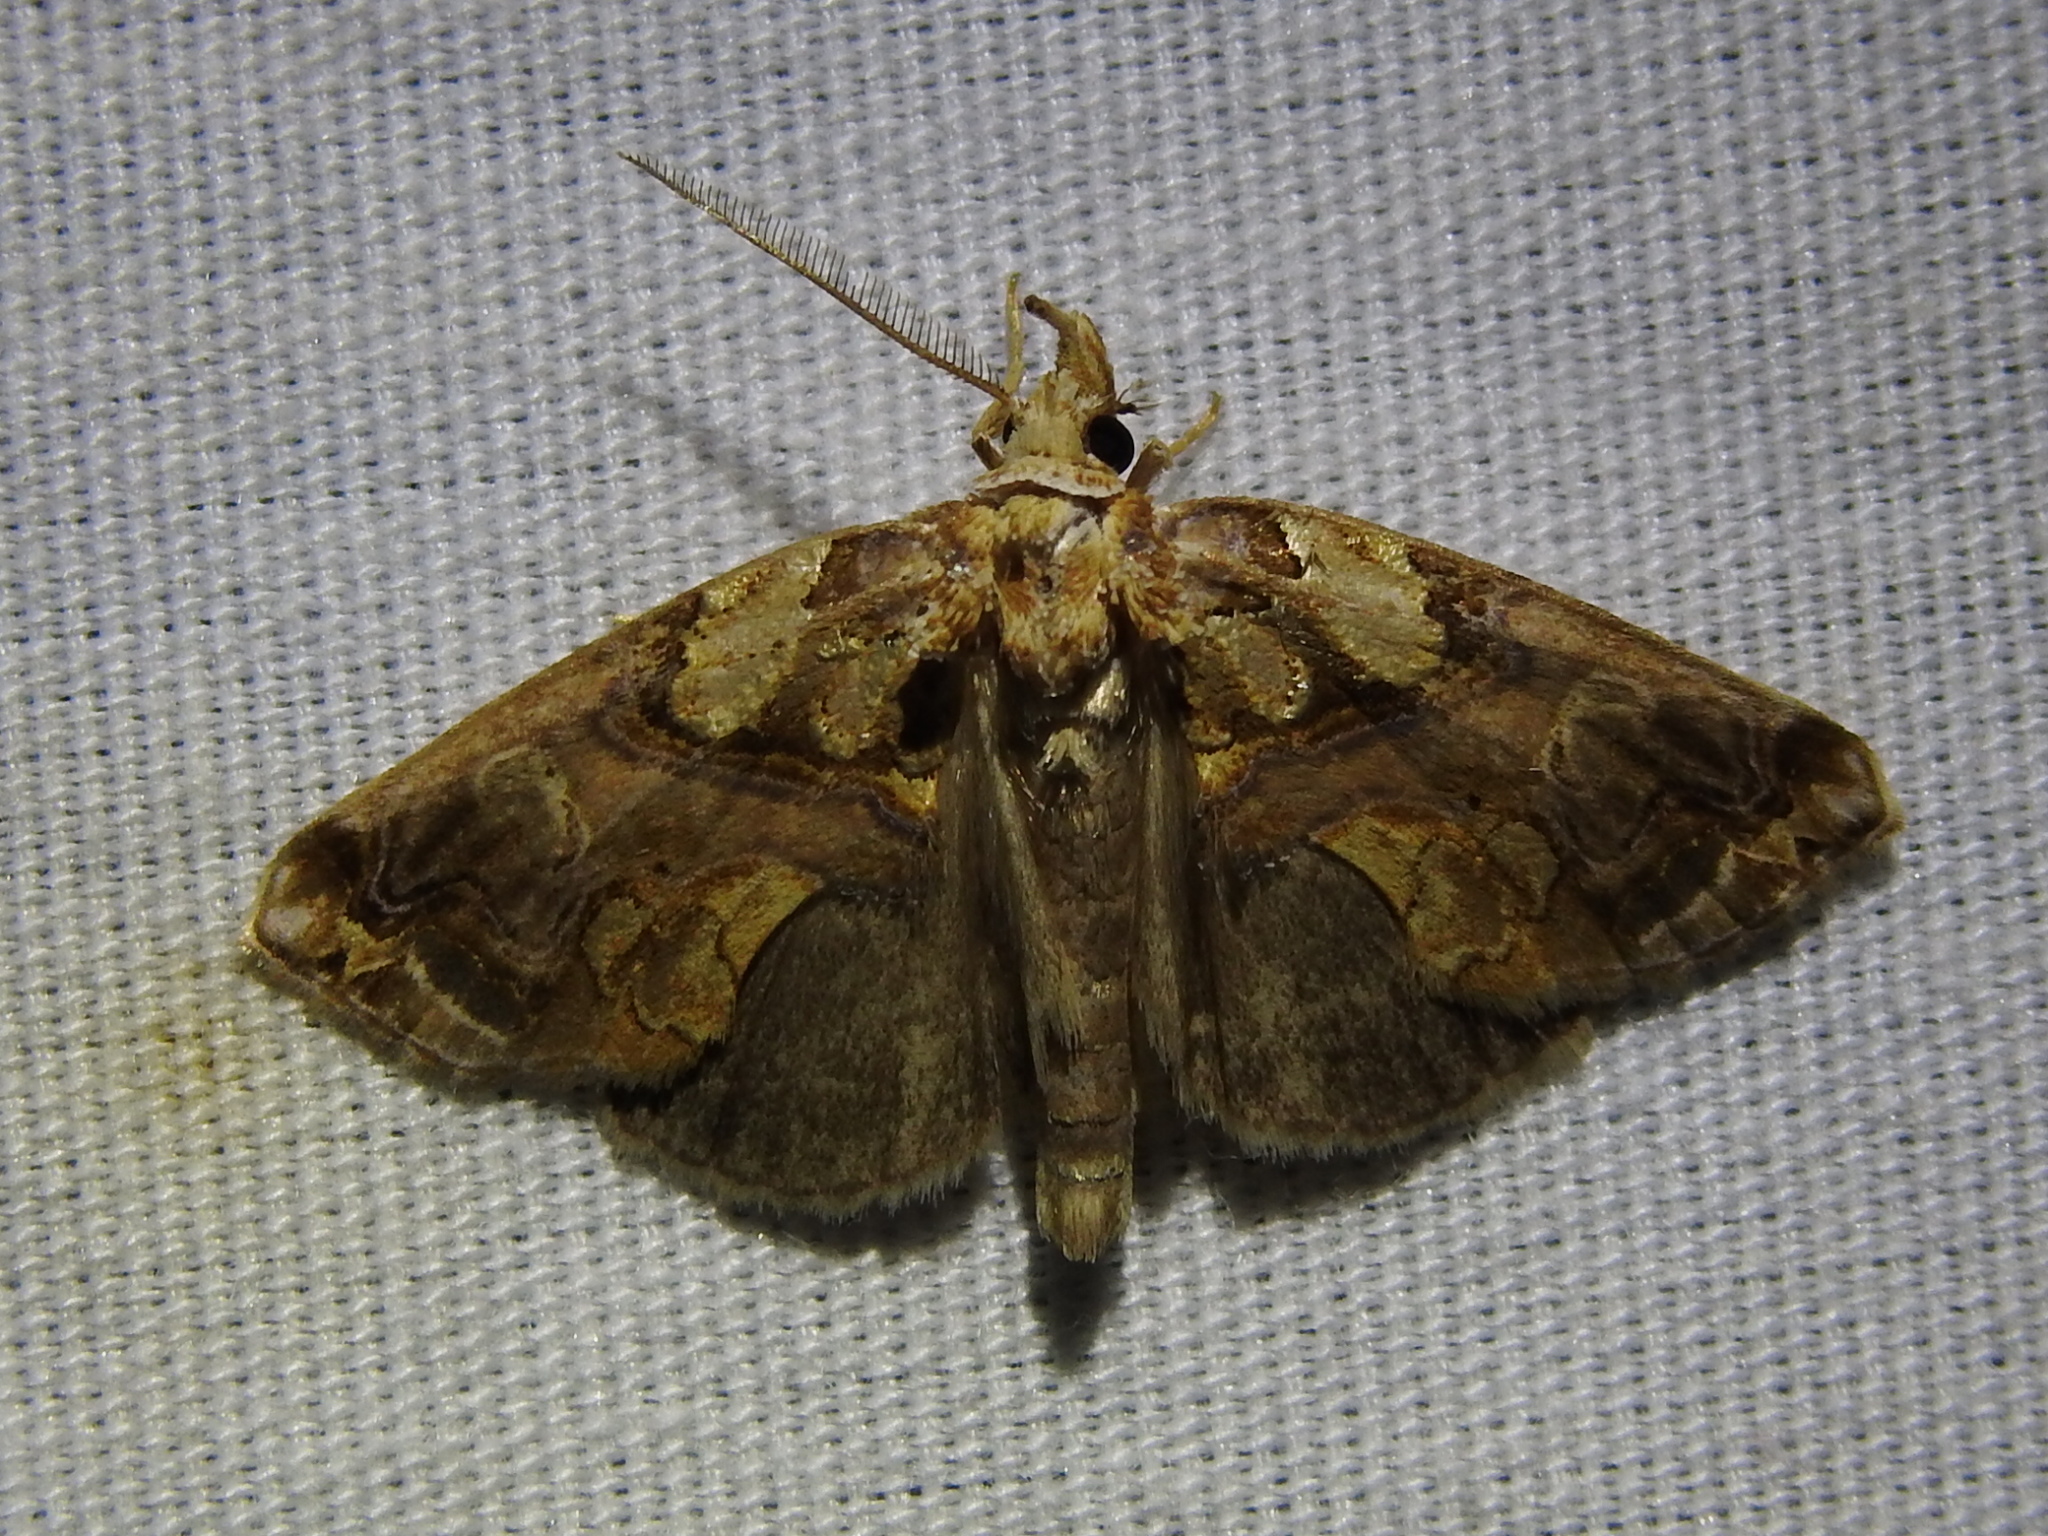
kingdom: Animalia
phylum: Arthropoda
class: Insecta
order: Lepidoptera
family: Erebidae
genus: Plusiodonta
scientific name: Plusiodonta compressipalpis
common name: Moonseed moth
